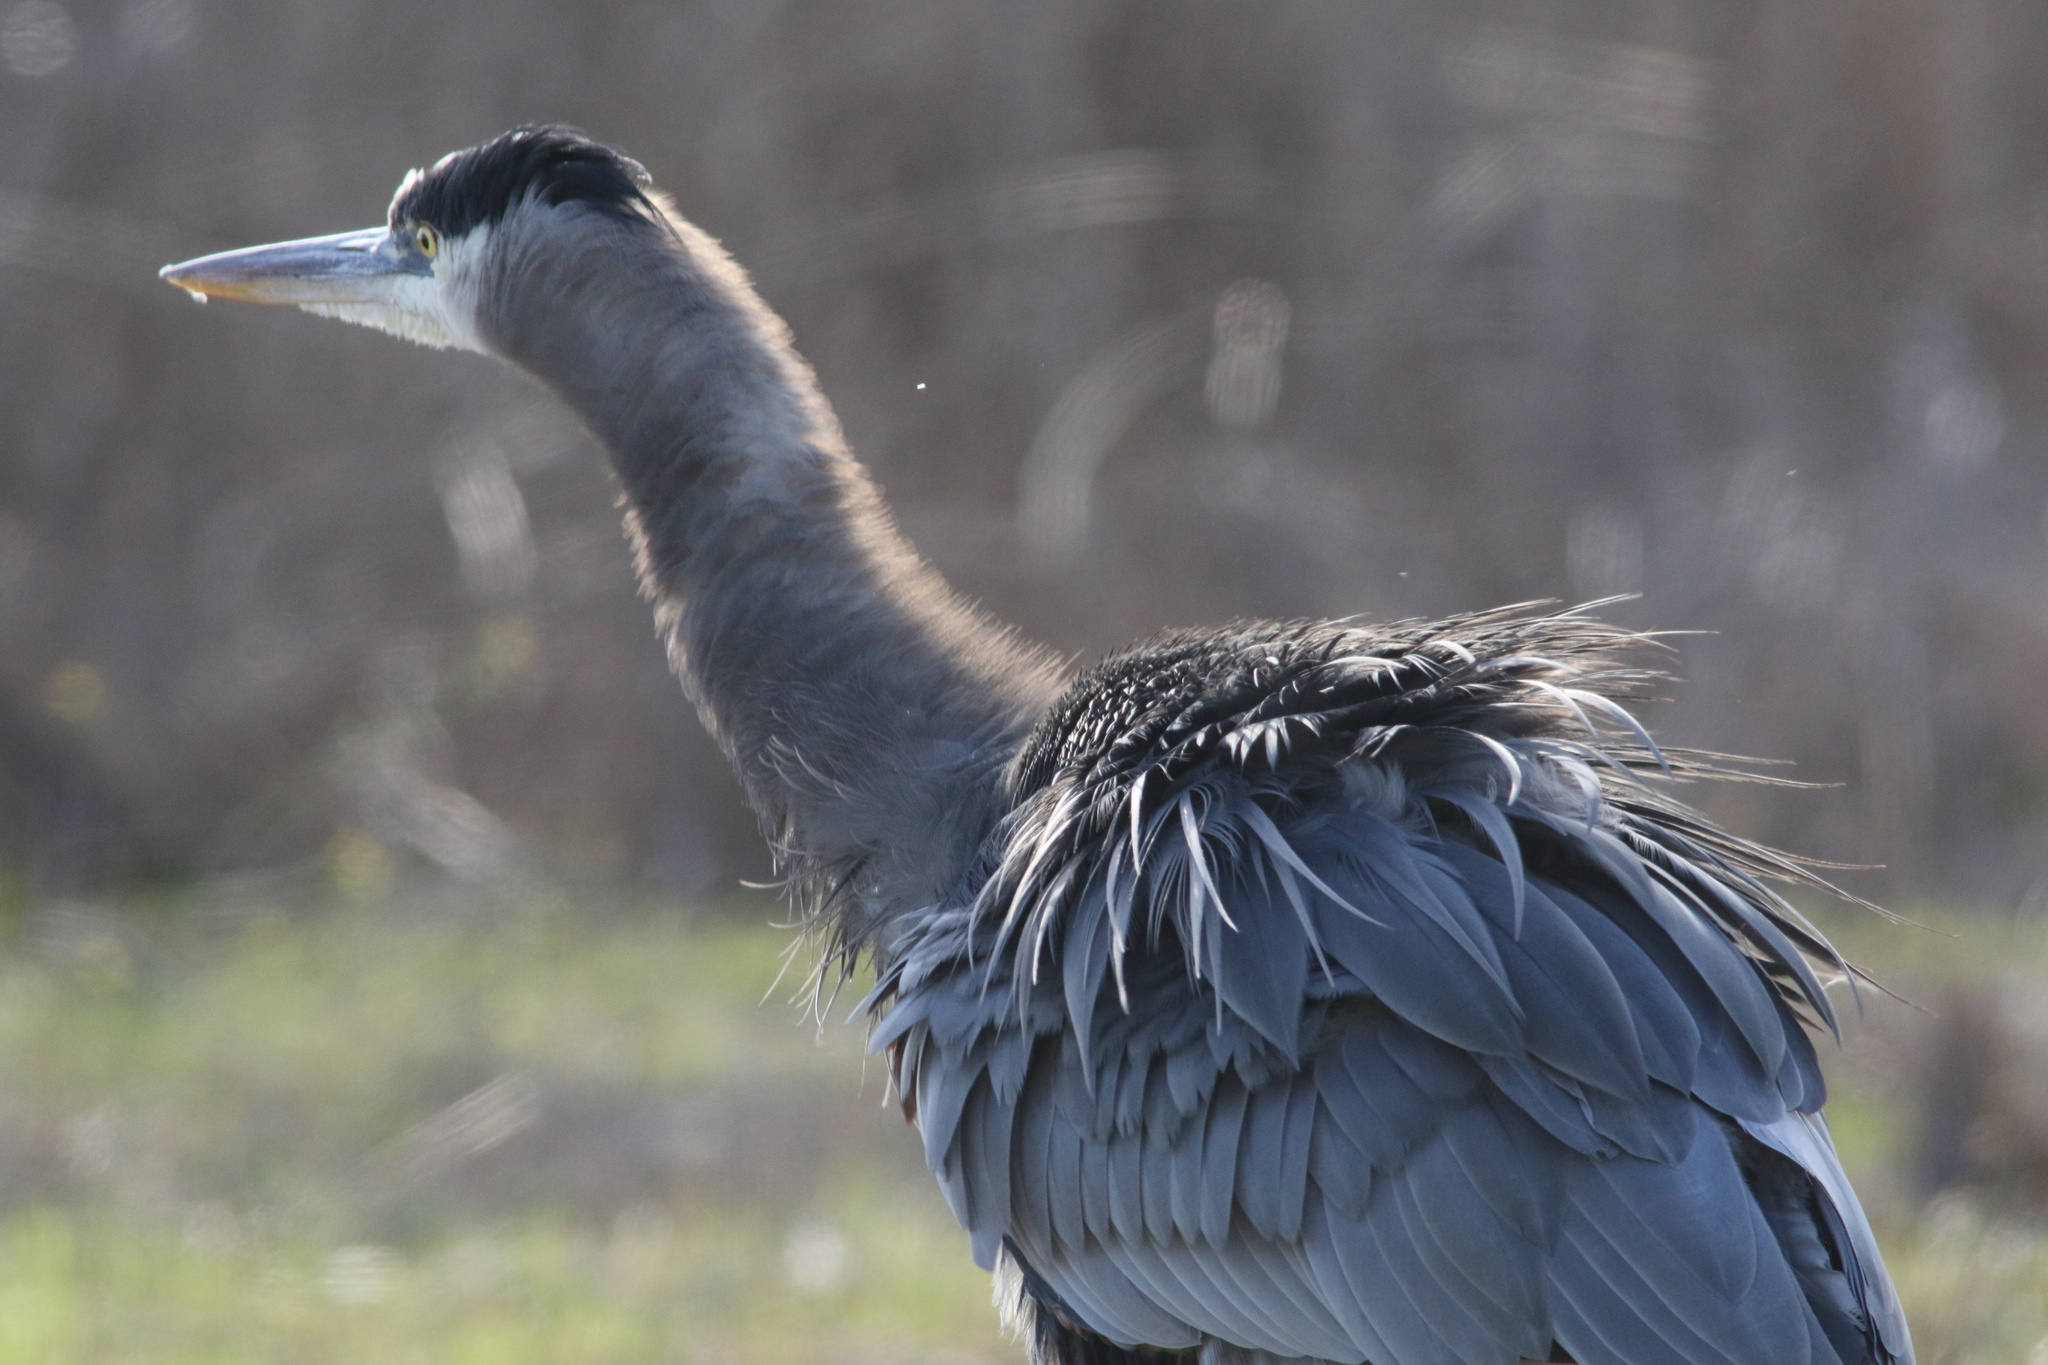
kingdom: Animalia
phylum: Chordata
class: Aves
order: Pelecaniformes
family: Ardeidae
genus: Ardea
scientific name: Ardea herodias
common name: Great blue heron
